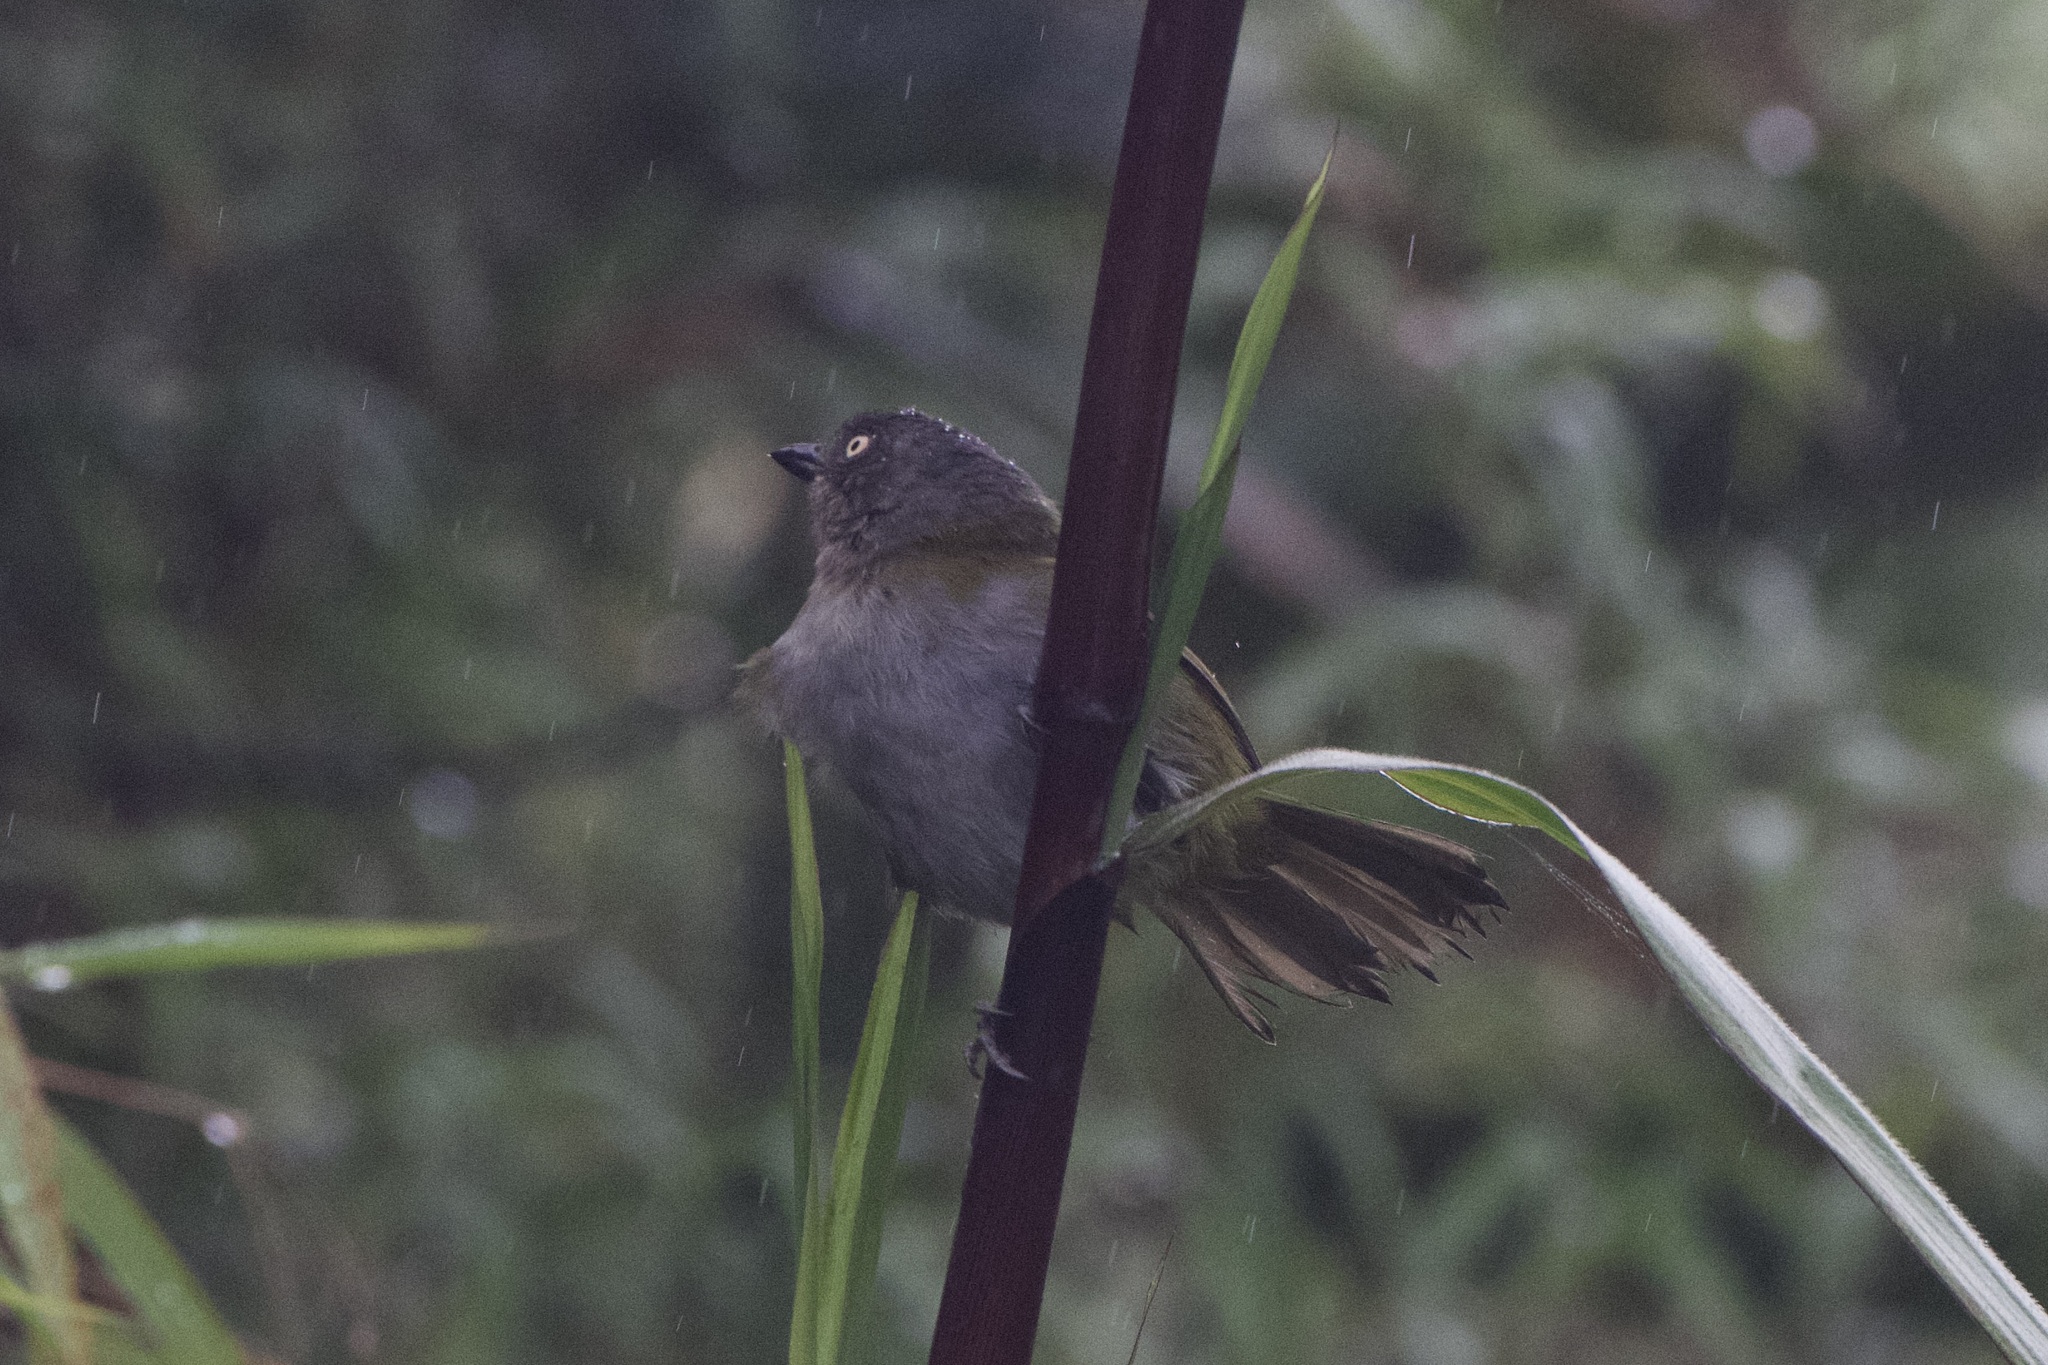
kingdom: Animalia
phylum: Chordata
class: Aves
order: Passeriformes
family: Passerellidae
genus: Chlorospingus
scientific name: Chlorospingus semifuscus
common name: Dusky bush-tanager
